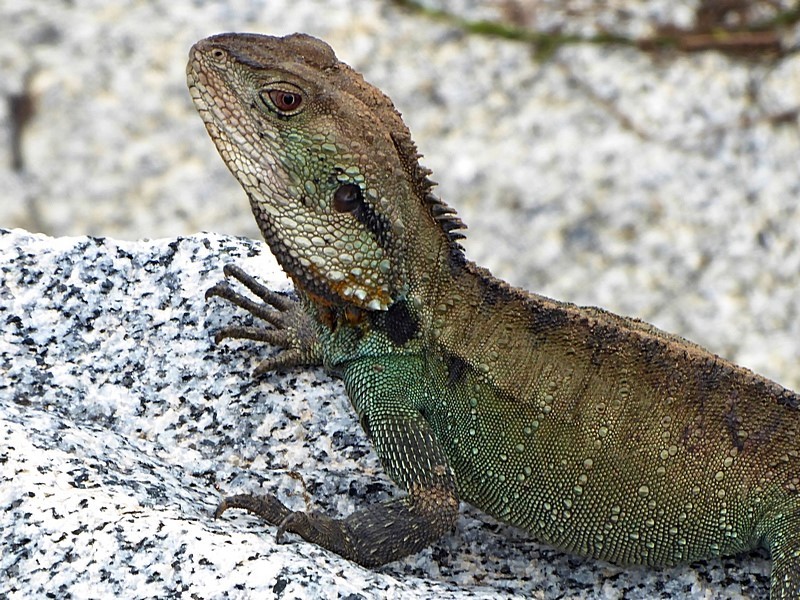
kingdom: Animalia
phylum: Chordata
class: Squamata
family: Agamidae
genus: Intellagama
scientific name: Intellagama lesueurii
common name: Eastern water dragon
